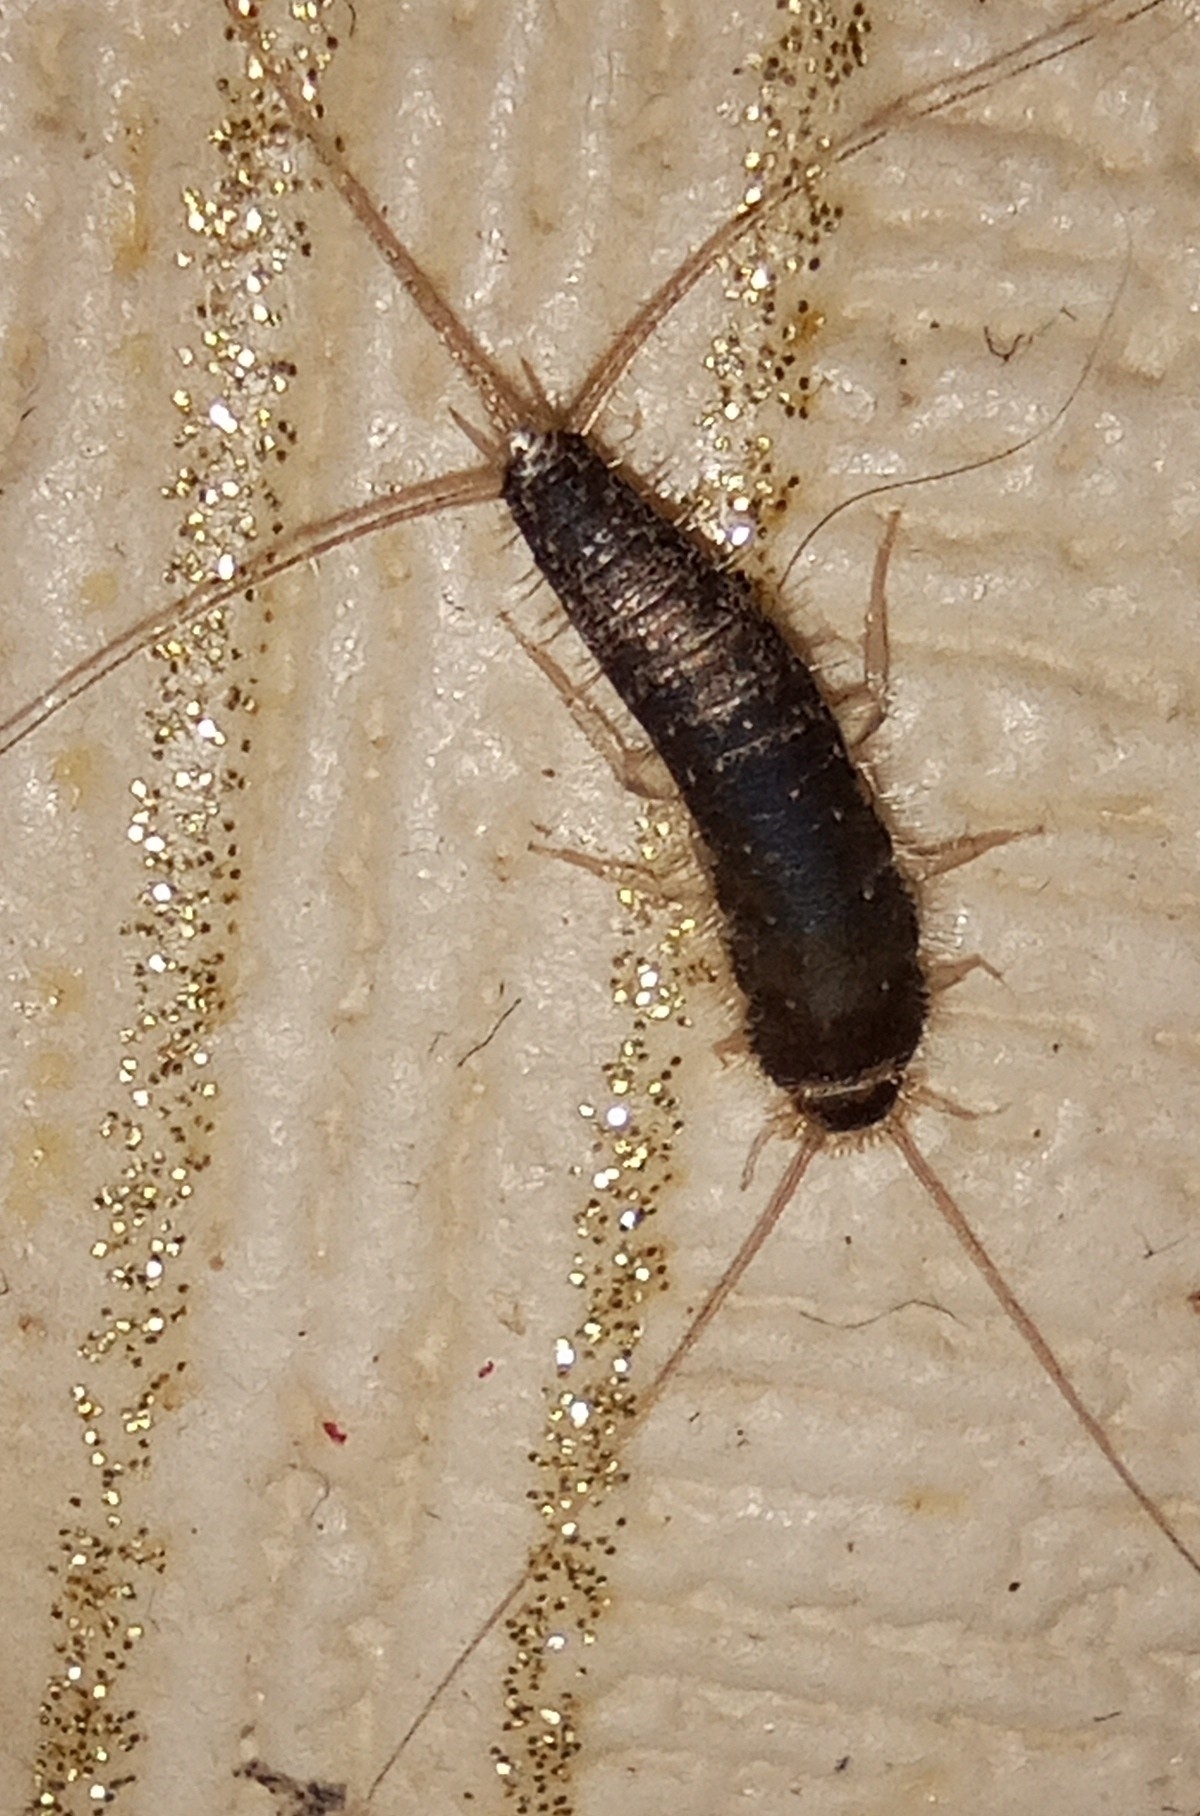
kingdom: Animalia
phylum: Arthropoda
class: Insecta
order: Zygentoma
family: Lepismatidae
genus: Ctenolepisma
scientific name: Ctenolepisma longicaudatum
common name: Silverfish
